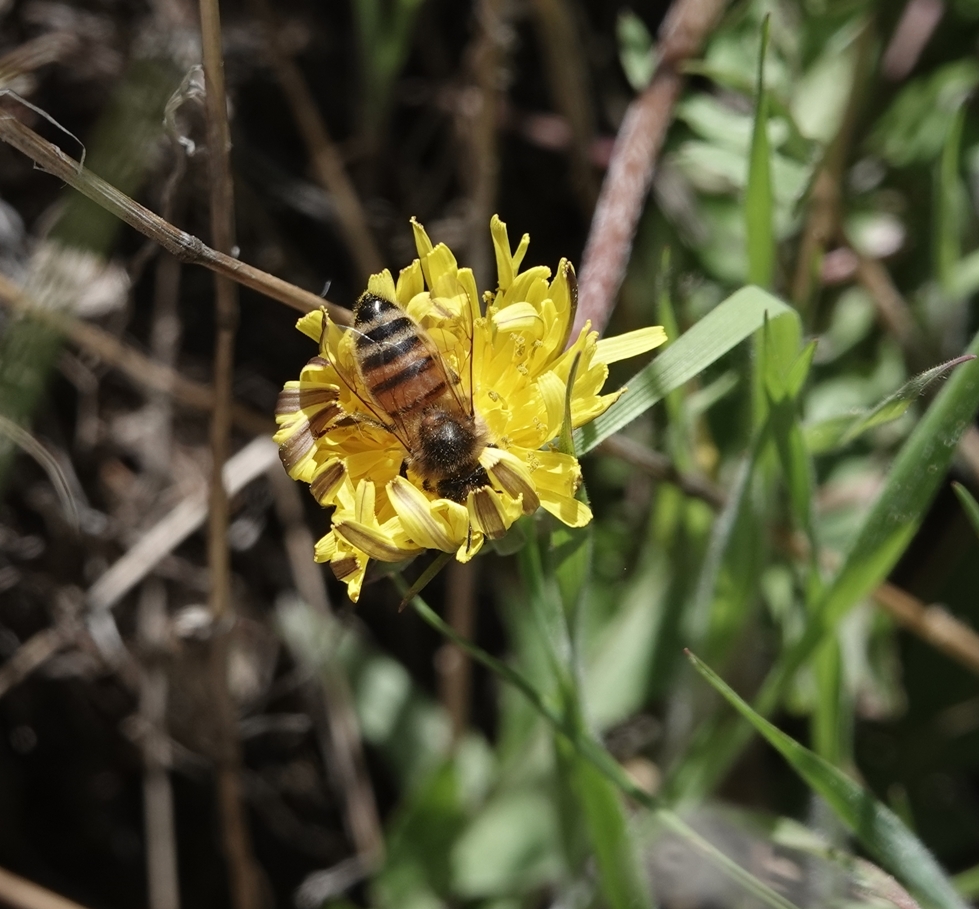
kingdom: Animalia
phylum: Arthropoda
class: Insecta
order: Hymenoptera
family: Apidae
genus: Apis
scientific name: Apis mellifera
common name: Honey bee
